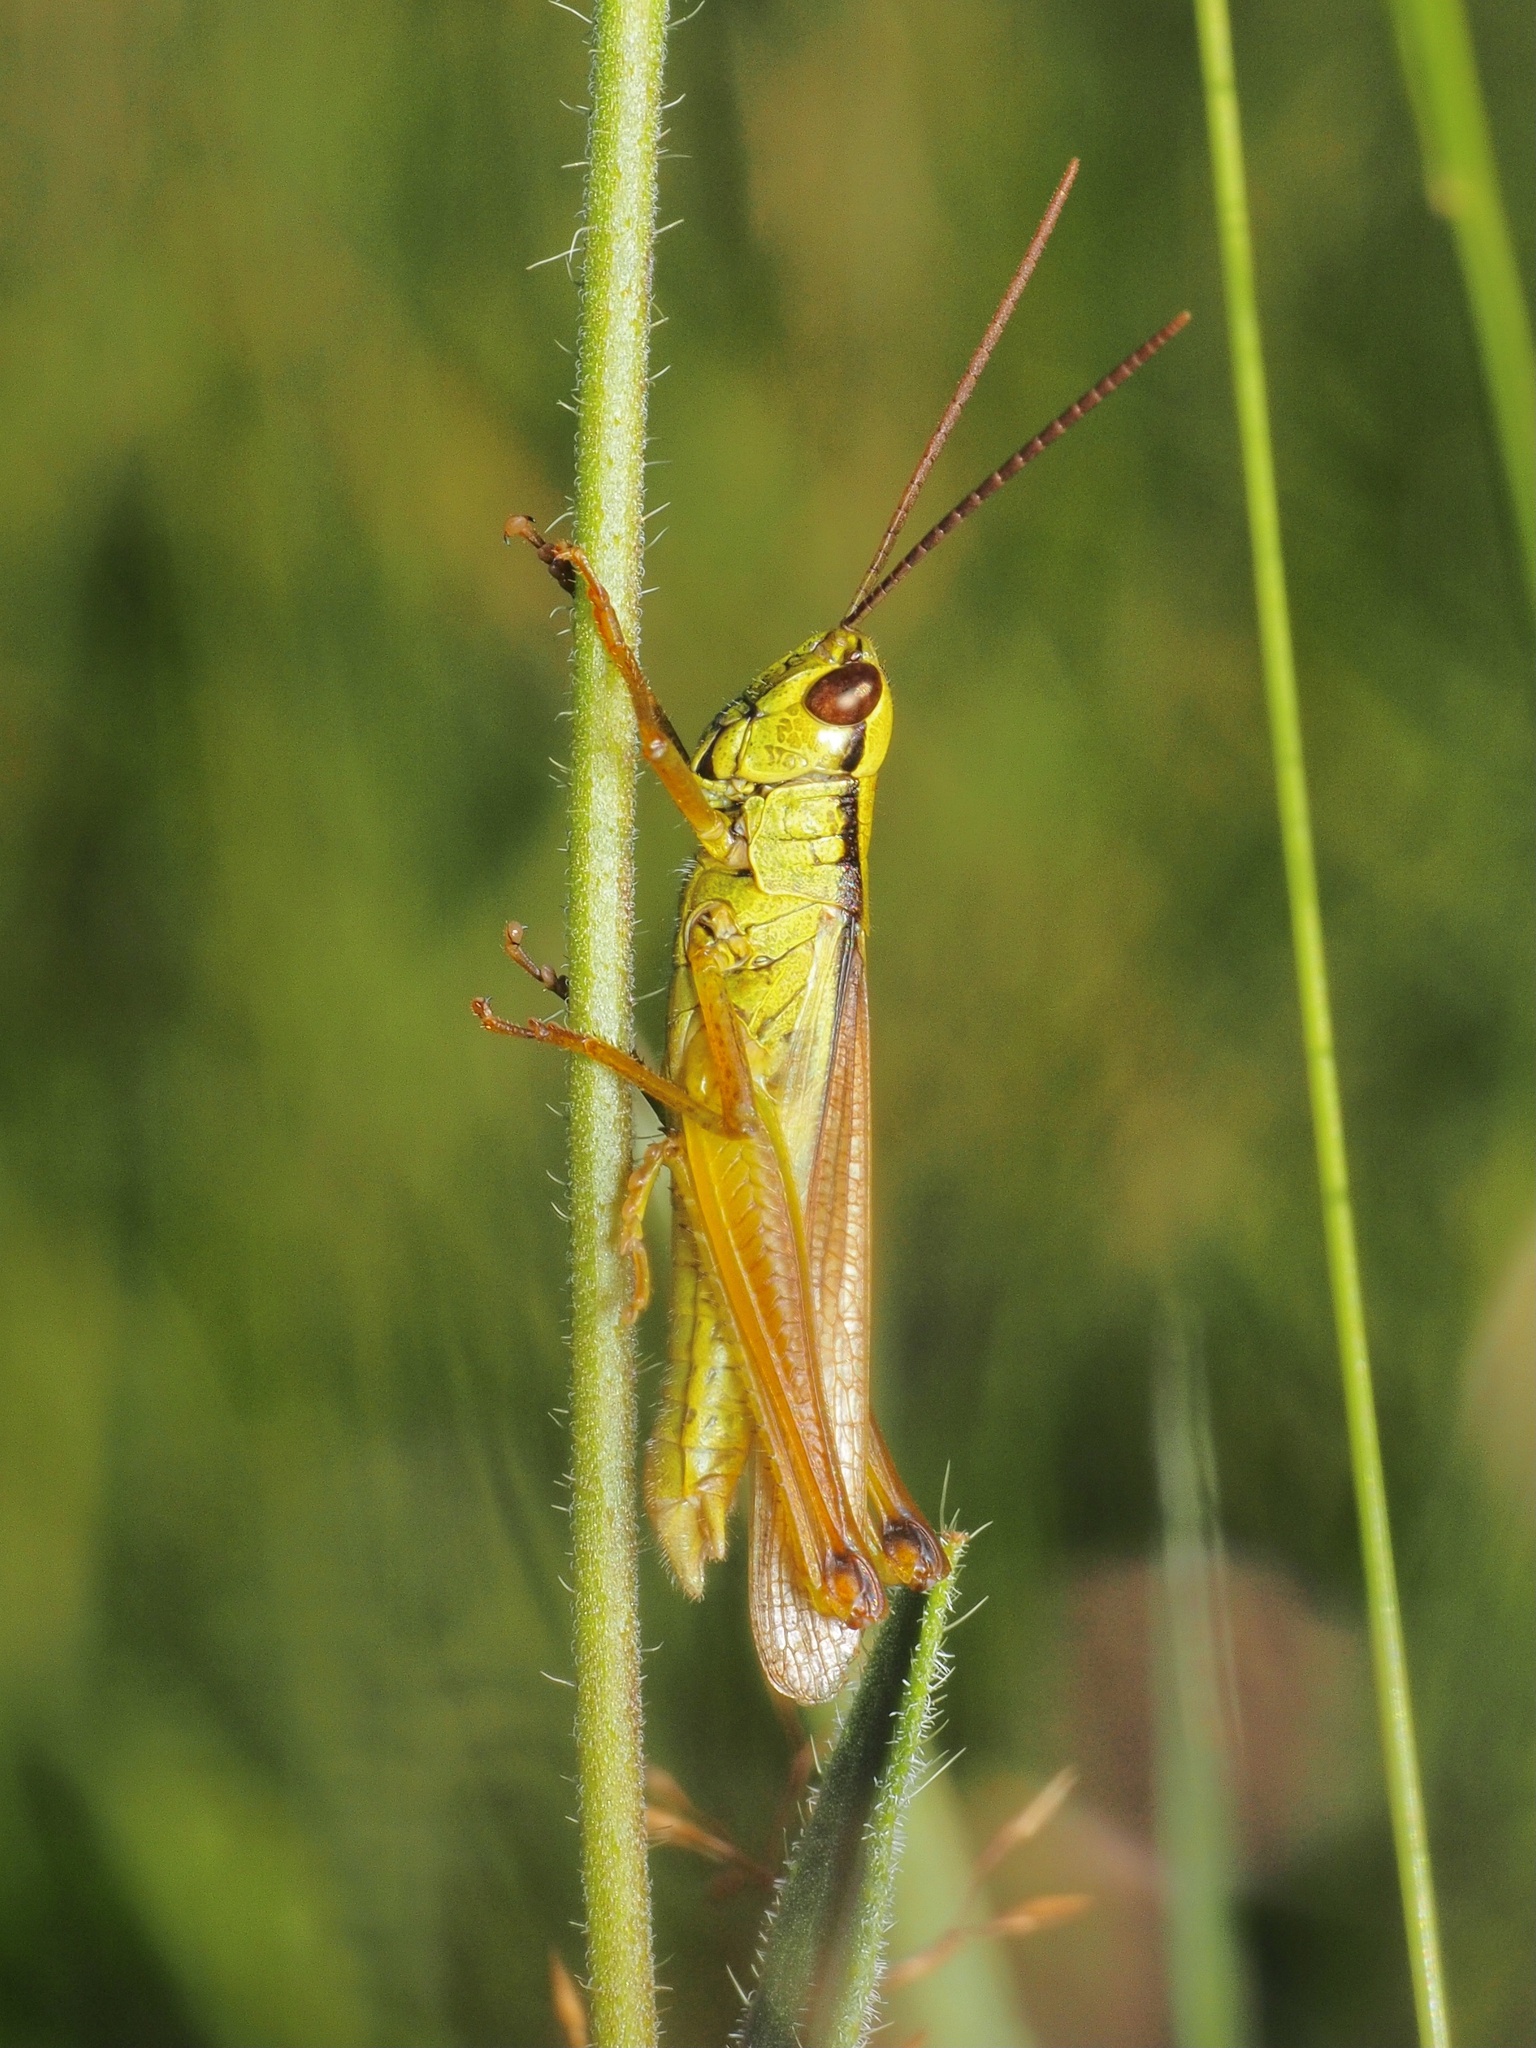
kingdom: Animalia
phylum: Arthropoda
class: Insecta
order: Orthoptera
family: Acrididae
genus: Mecostethus
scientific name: Mecostethus parapleurus
